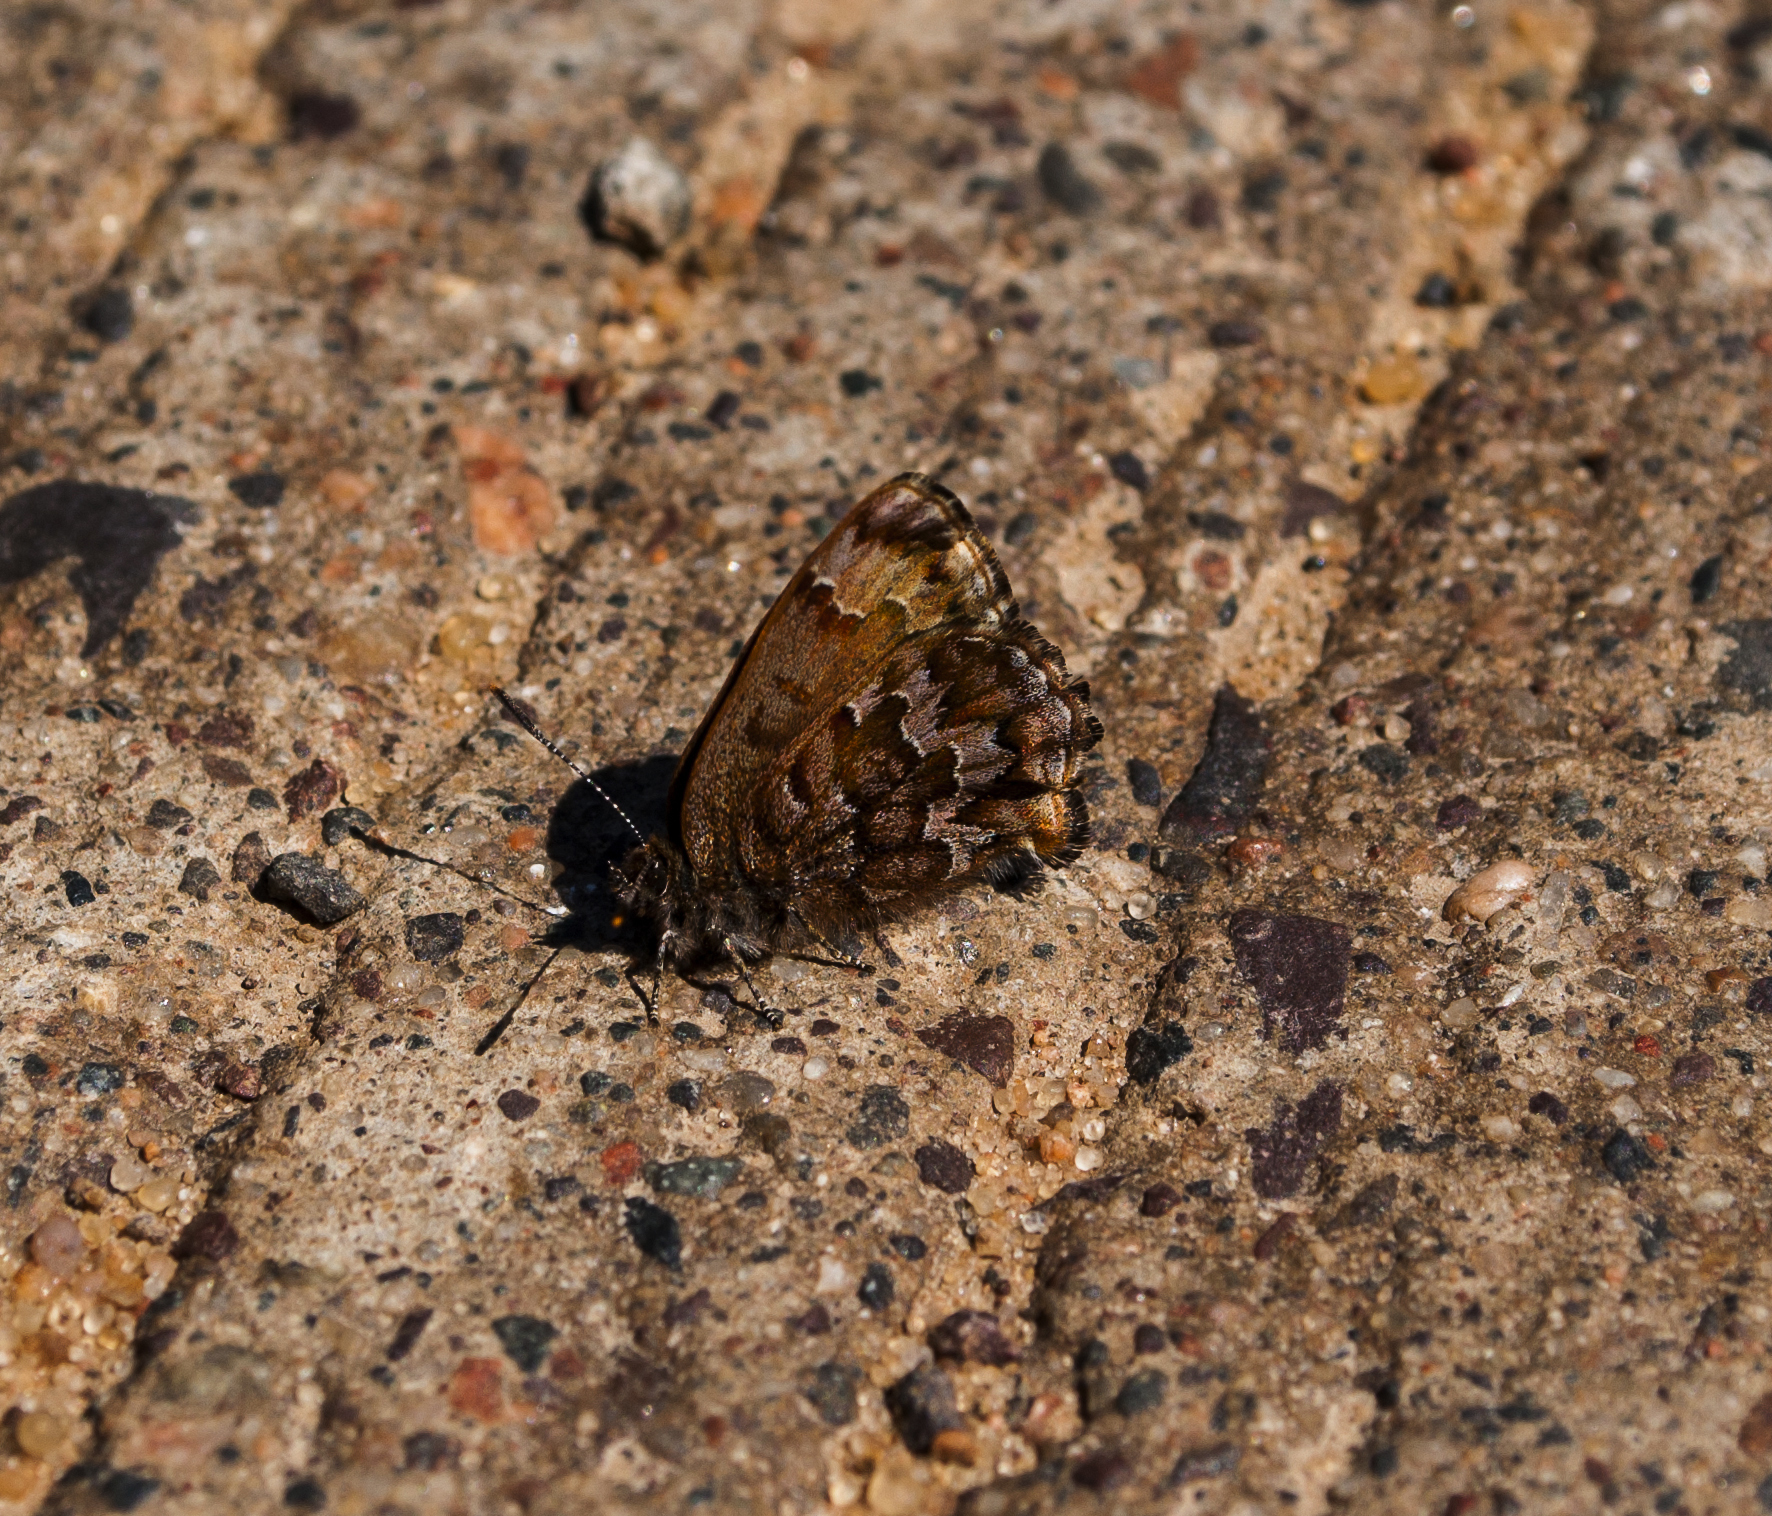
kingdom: Animalia
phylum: Arthropoda
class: Insecta
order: Lepidoptera
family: Lycaenidae
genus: Incisalia
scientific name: Incisalia niphon
